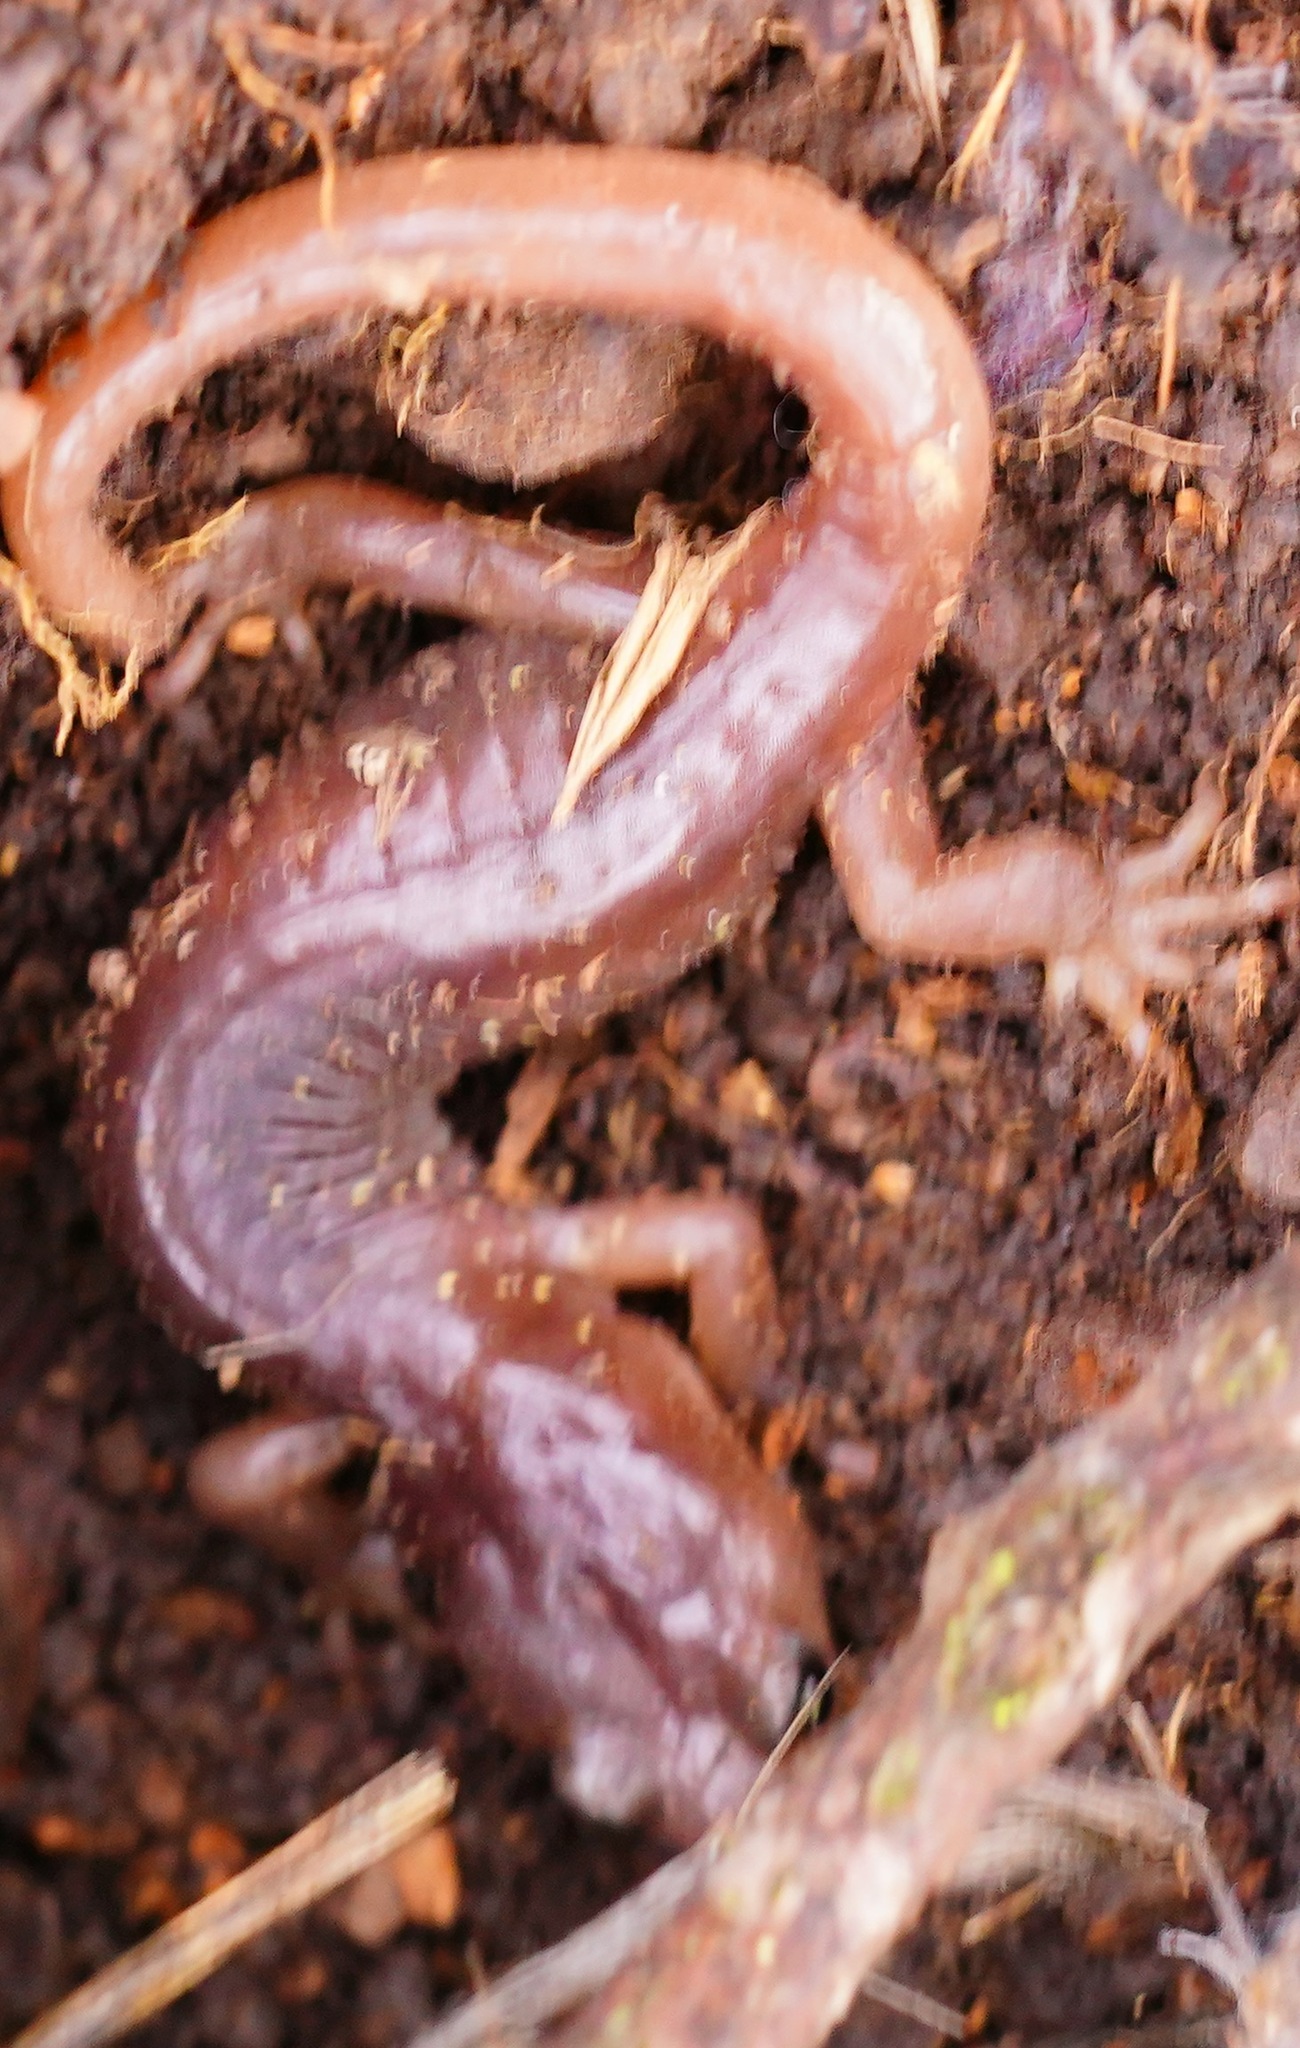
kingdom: Animalia
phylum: Chordata
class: Amphibia
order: Caudata
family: Plethodontidae
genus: Aneides
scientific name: Aneides lugubris
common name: Arboreal salamander
